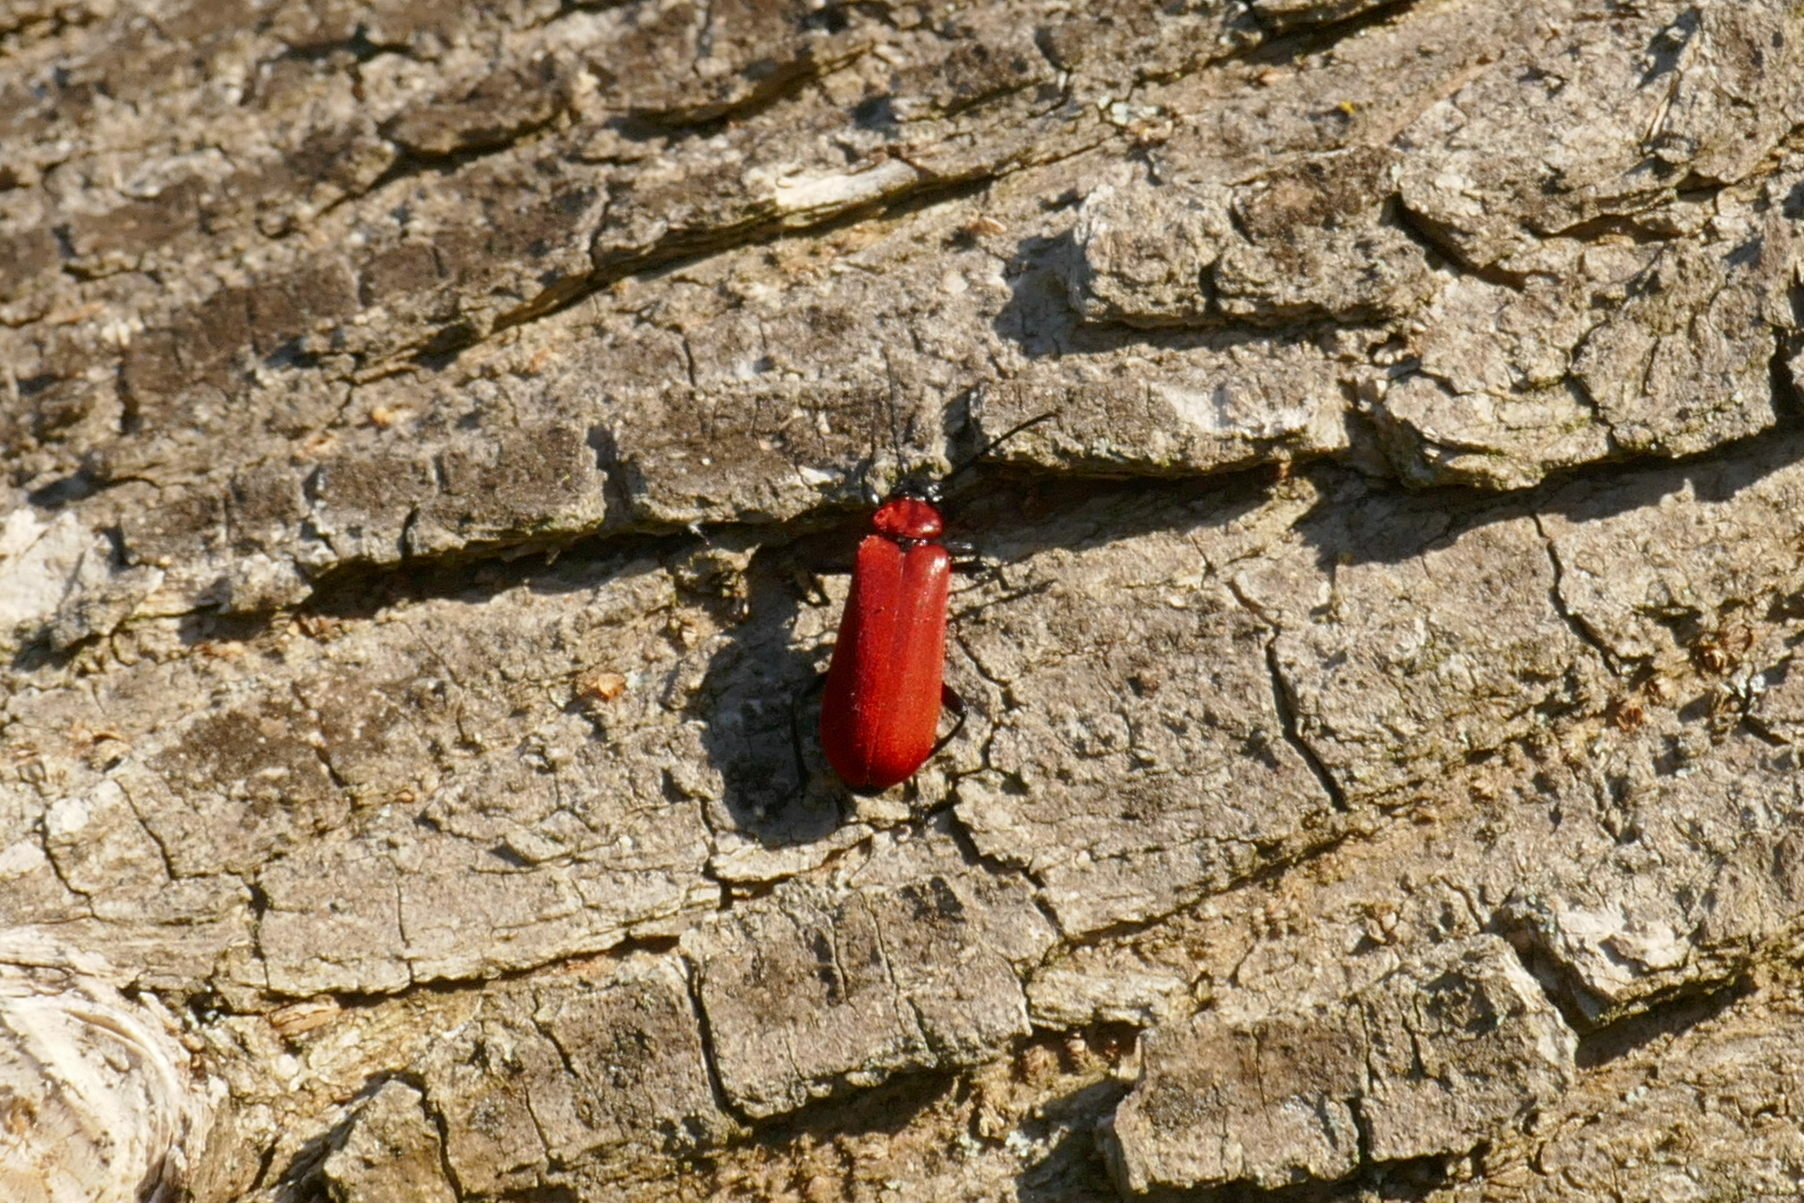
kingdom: Animalia
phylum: Arthropoda
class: Insecta
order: Coleoptera
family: Pyrochroidae
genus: Pyrochroa
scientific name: Pyrochroa coccinea
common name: Black-headed cardinal beetle
